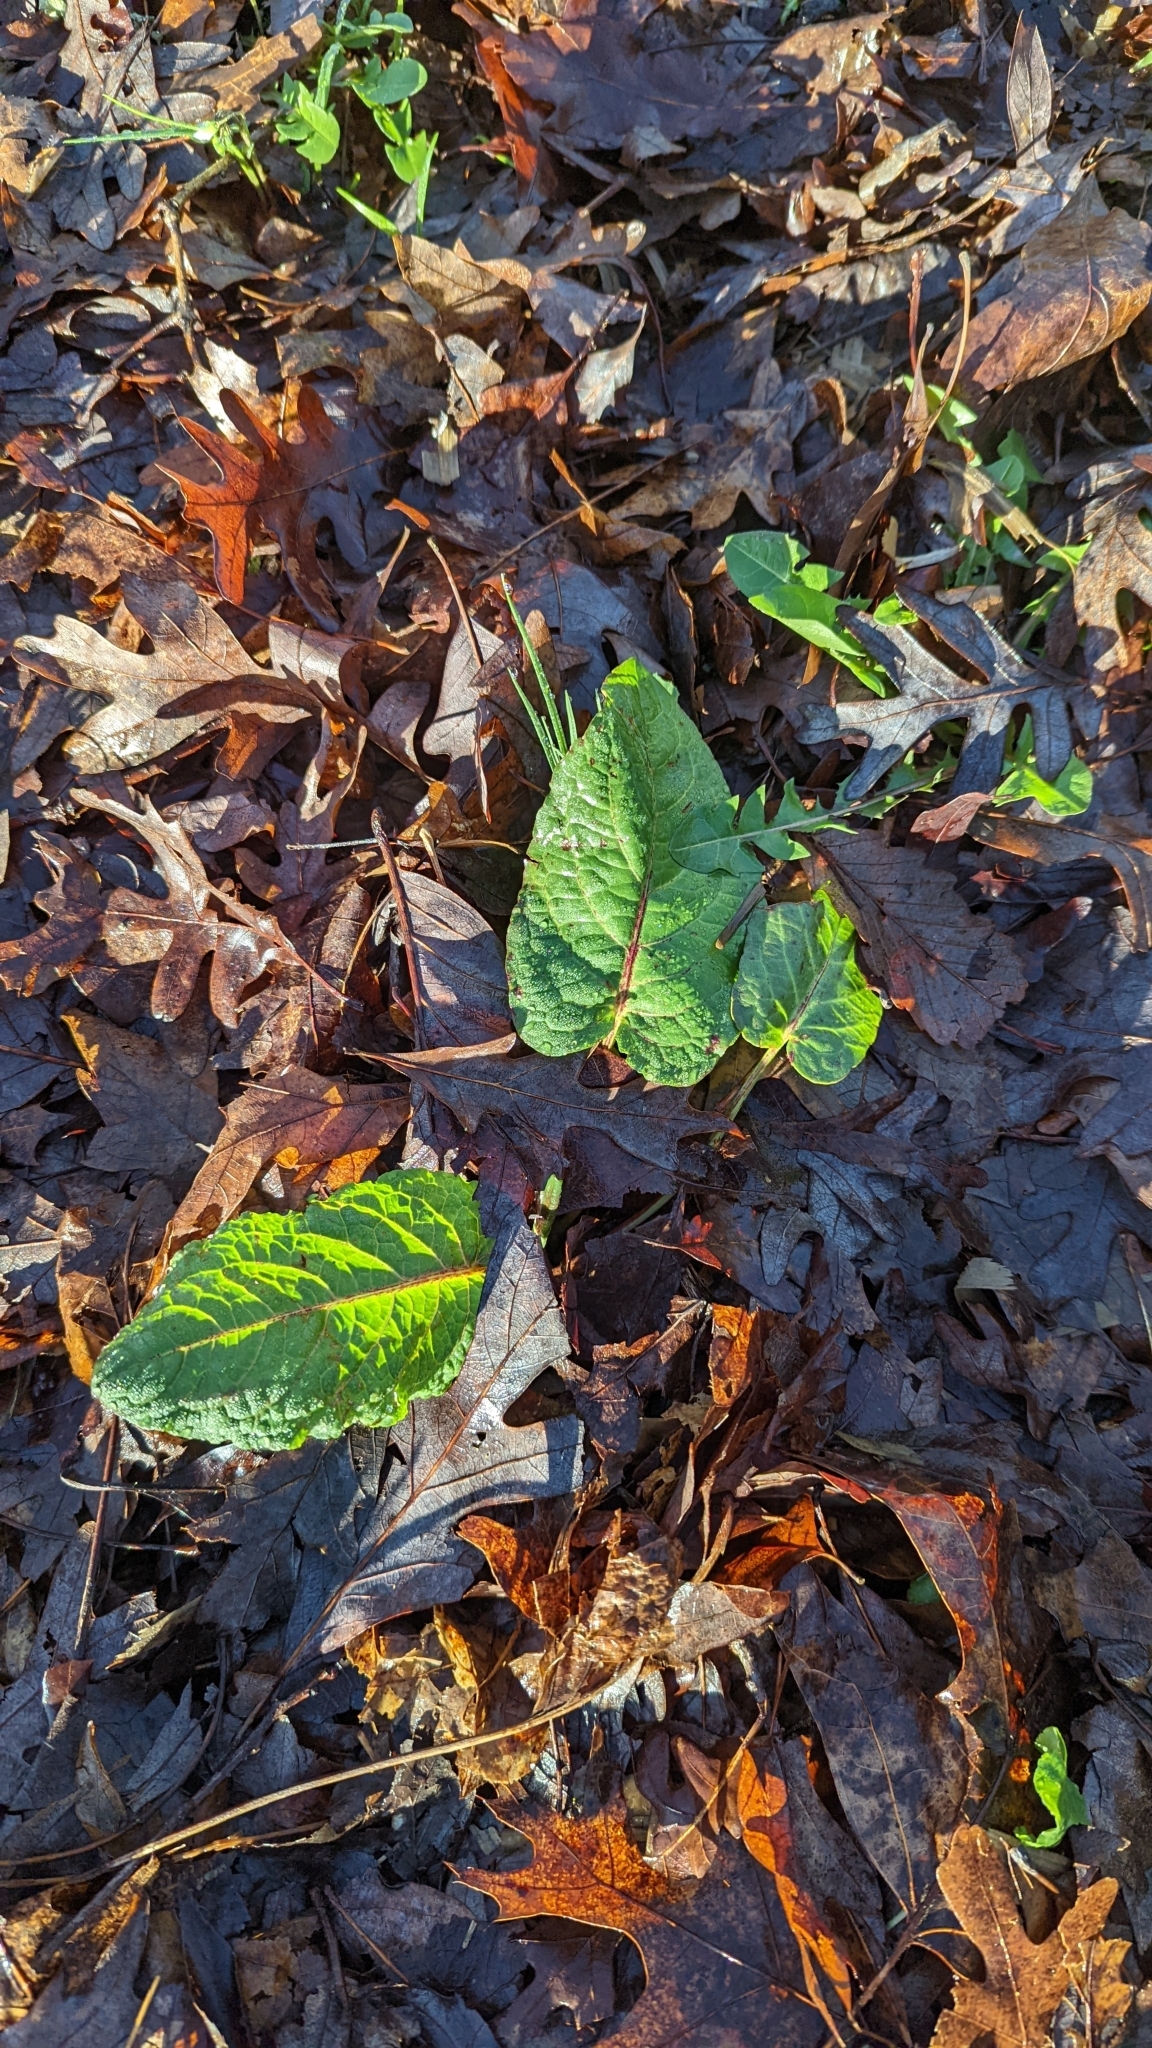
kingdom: Plantae
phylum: Tracheophyta
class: Magnoliopsida
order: Caryophyllales
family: Polygonaceae
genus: Rumex
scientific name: Rumex obtusifolius
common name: Bitter dock
